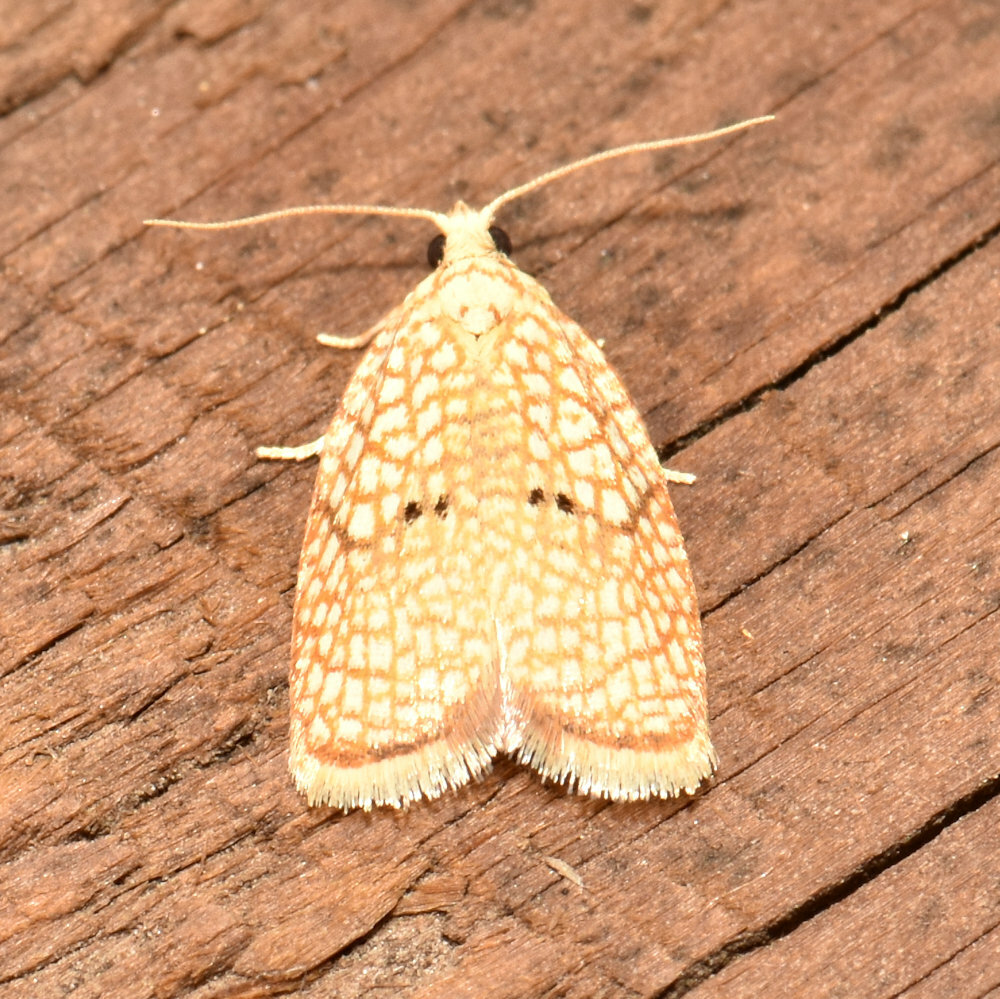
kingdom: Animalia
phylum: Arthropoda
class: Insecta
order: Lepidoptera
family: Tortricidae
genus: Acleris
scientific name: Acleris forsskaleana
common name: Maple button
